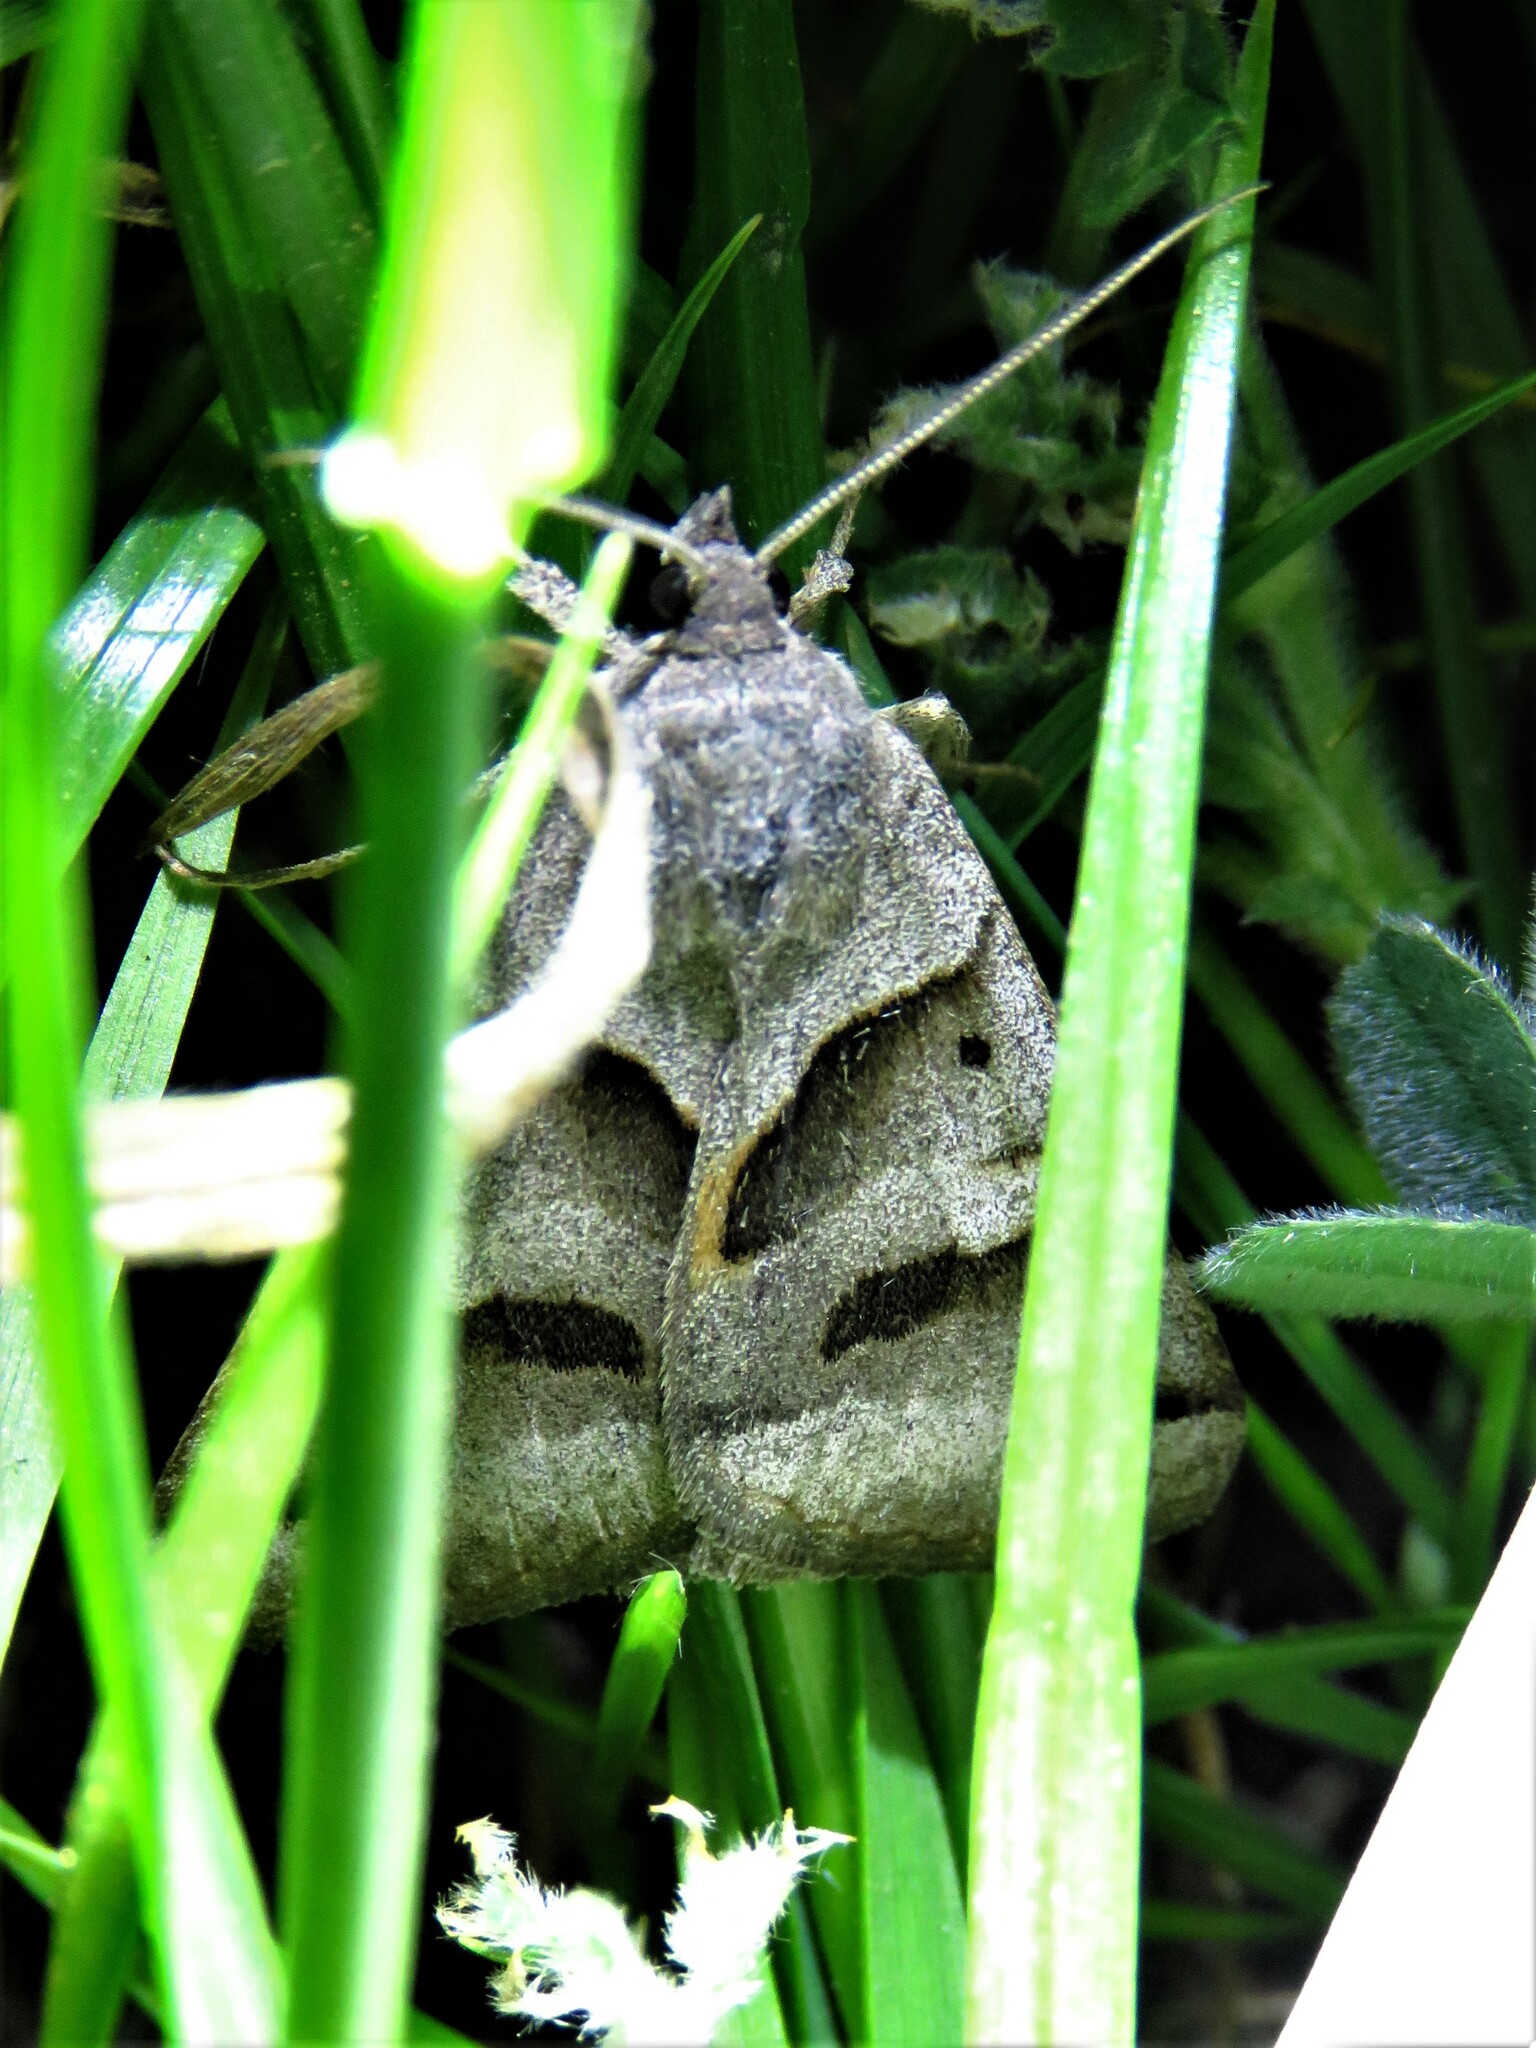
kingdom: Animalia
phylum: Arthropoda
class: Insecta
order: Lepidoptera
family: Erebidae
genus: Caenurgina
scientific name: Caenurgina erechtea
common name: Forage looper moth
